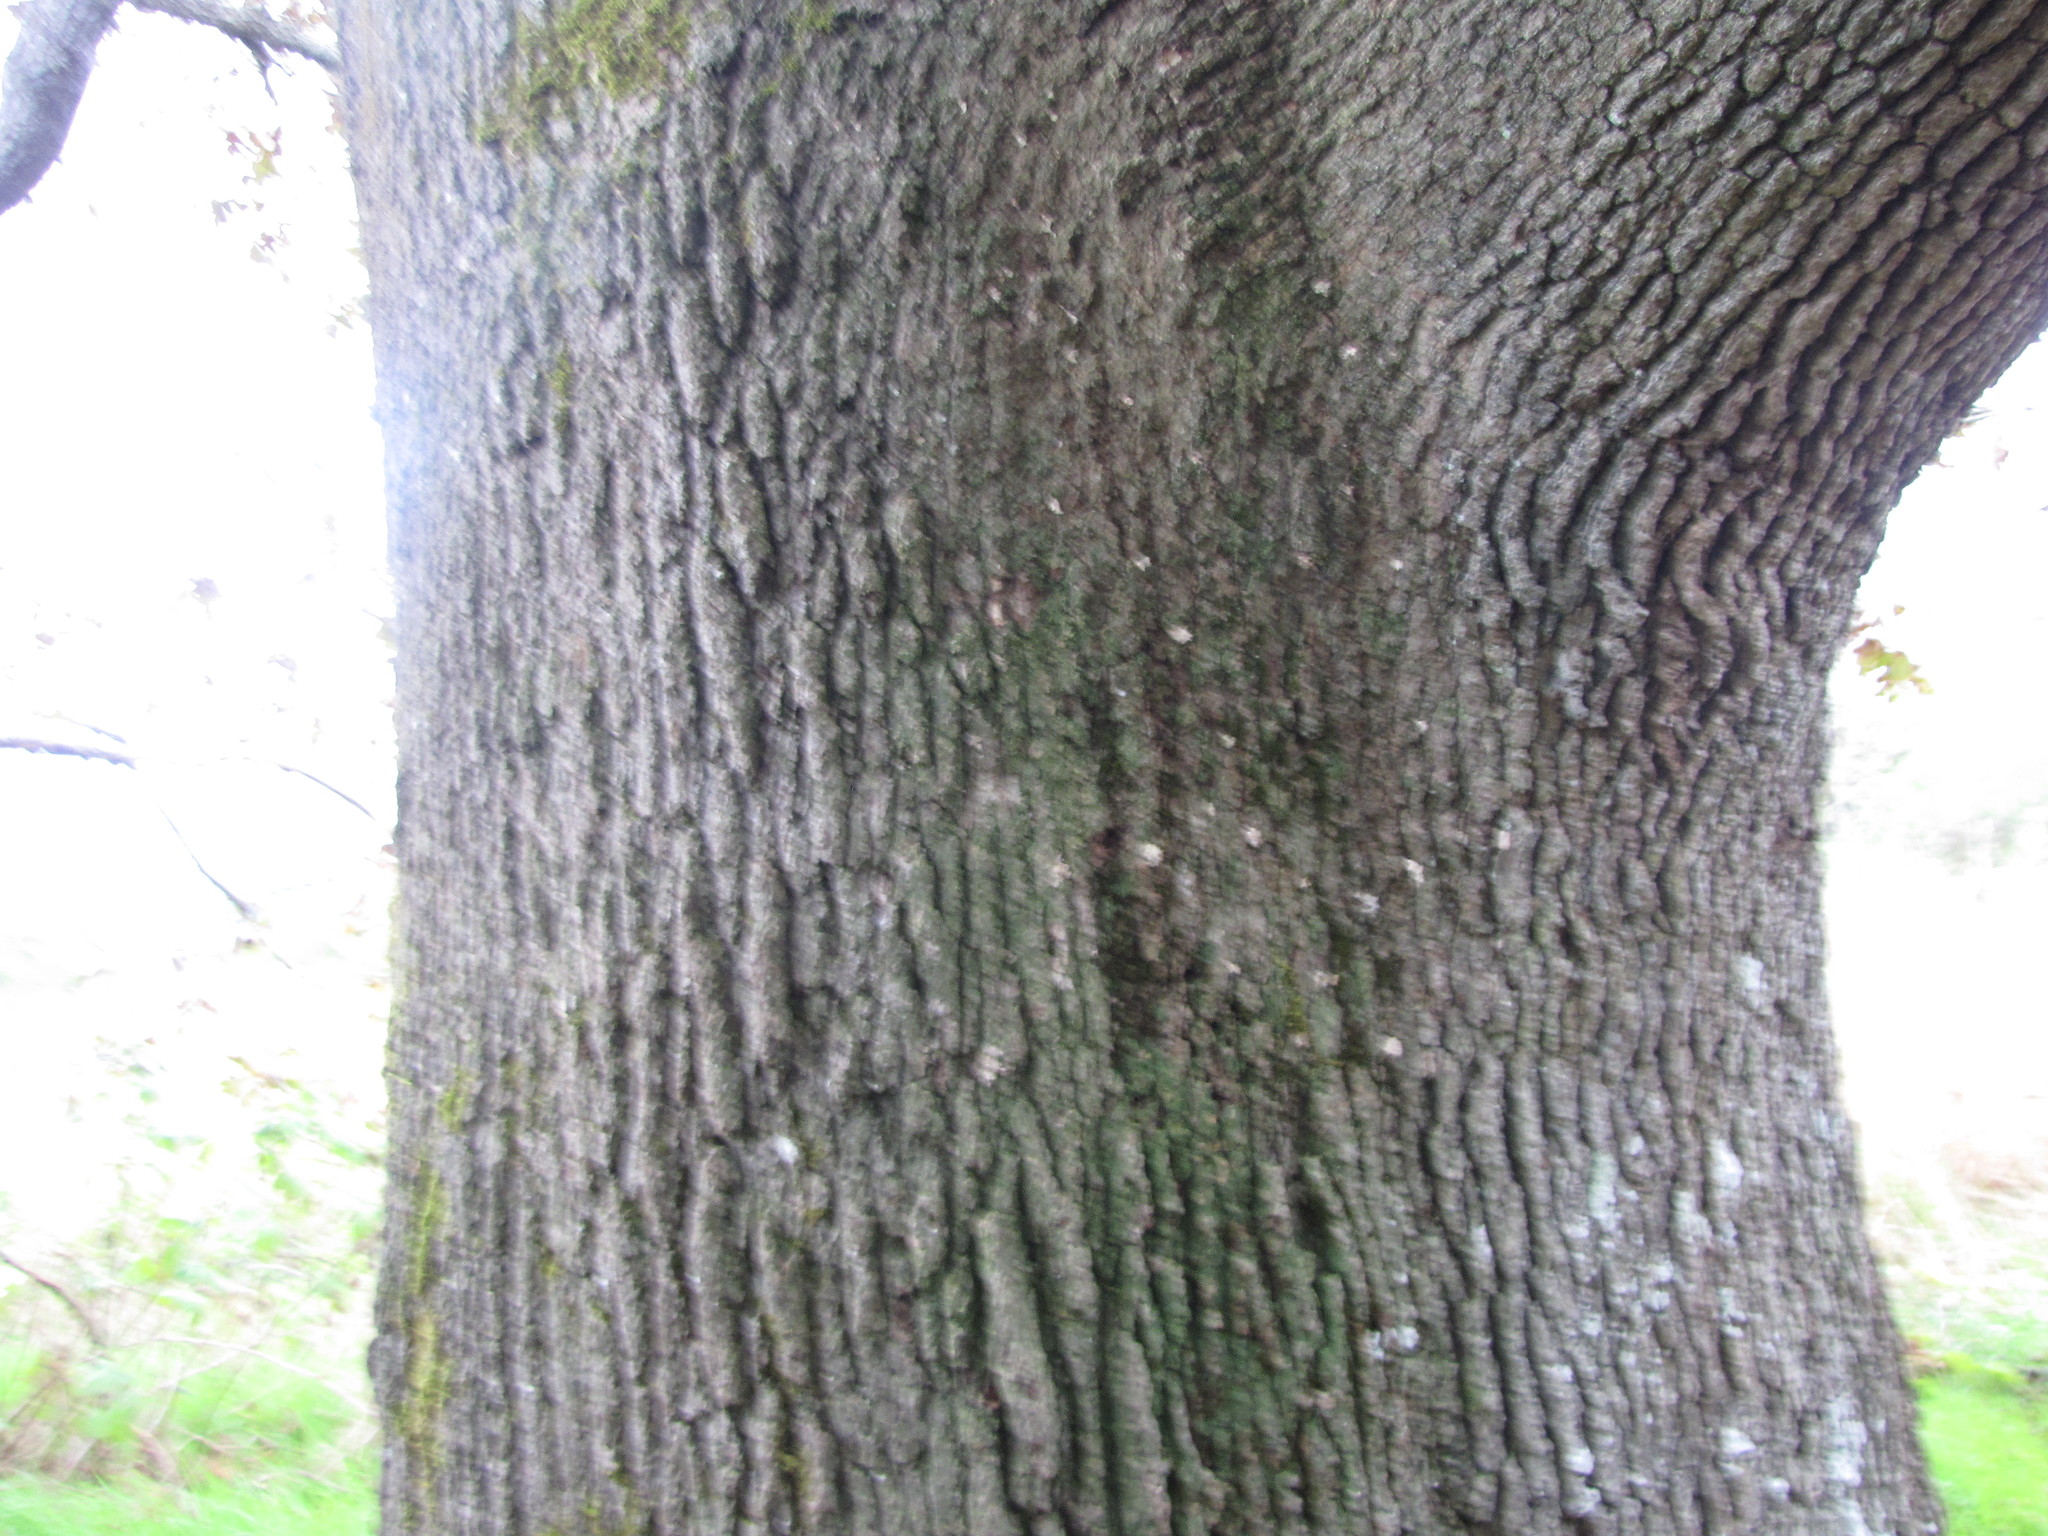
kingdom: Plantae
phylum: Tracheophyta
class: Magnoliopsida
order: Fagales
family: Fagaceae
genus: Quercus
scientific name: Quercus garryana
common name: Garry oak
